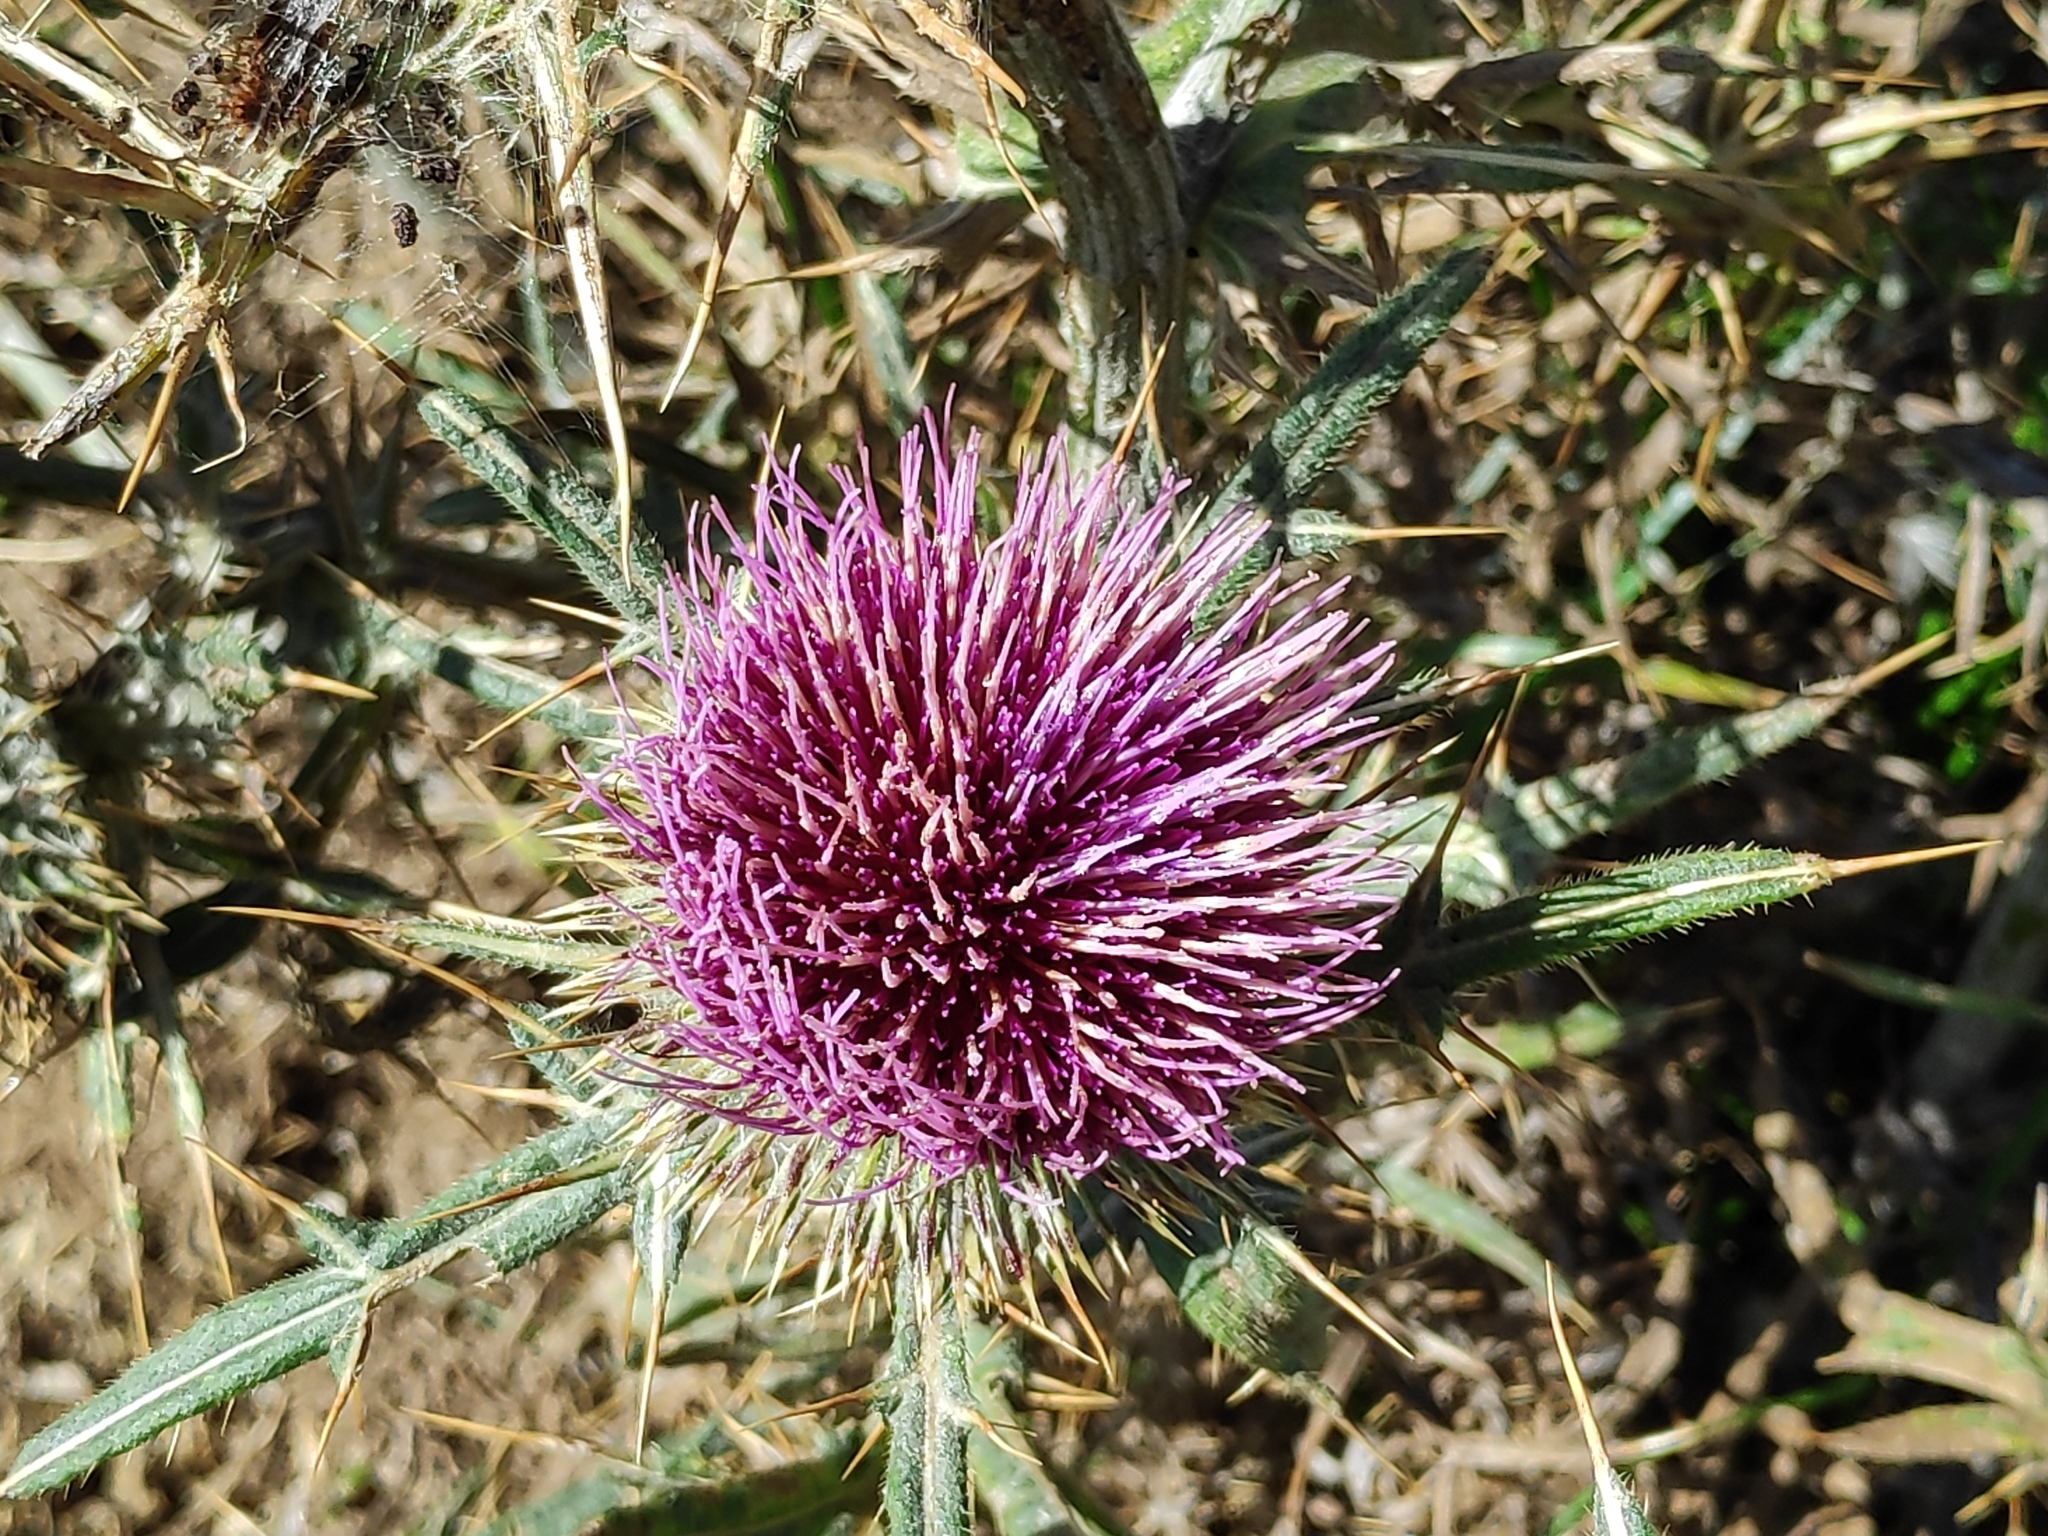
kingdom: Plantae
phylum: Tracheophyta
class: Magnoliopsida
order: Asterales
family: Asteraceae
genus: Lophiolepis
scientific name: Lophiolepis morisiana
